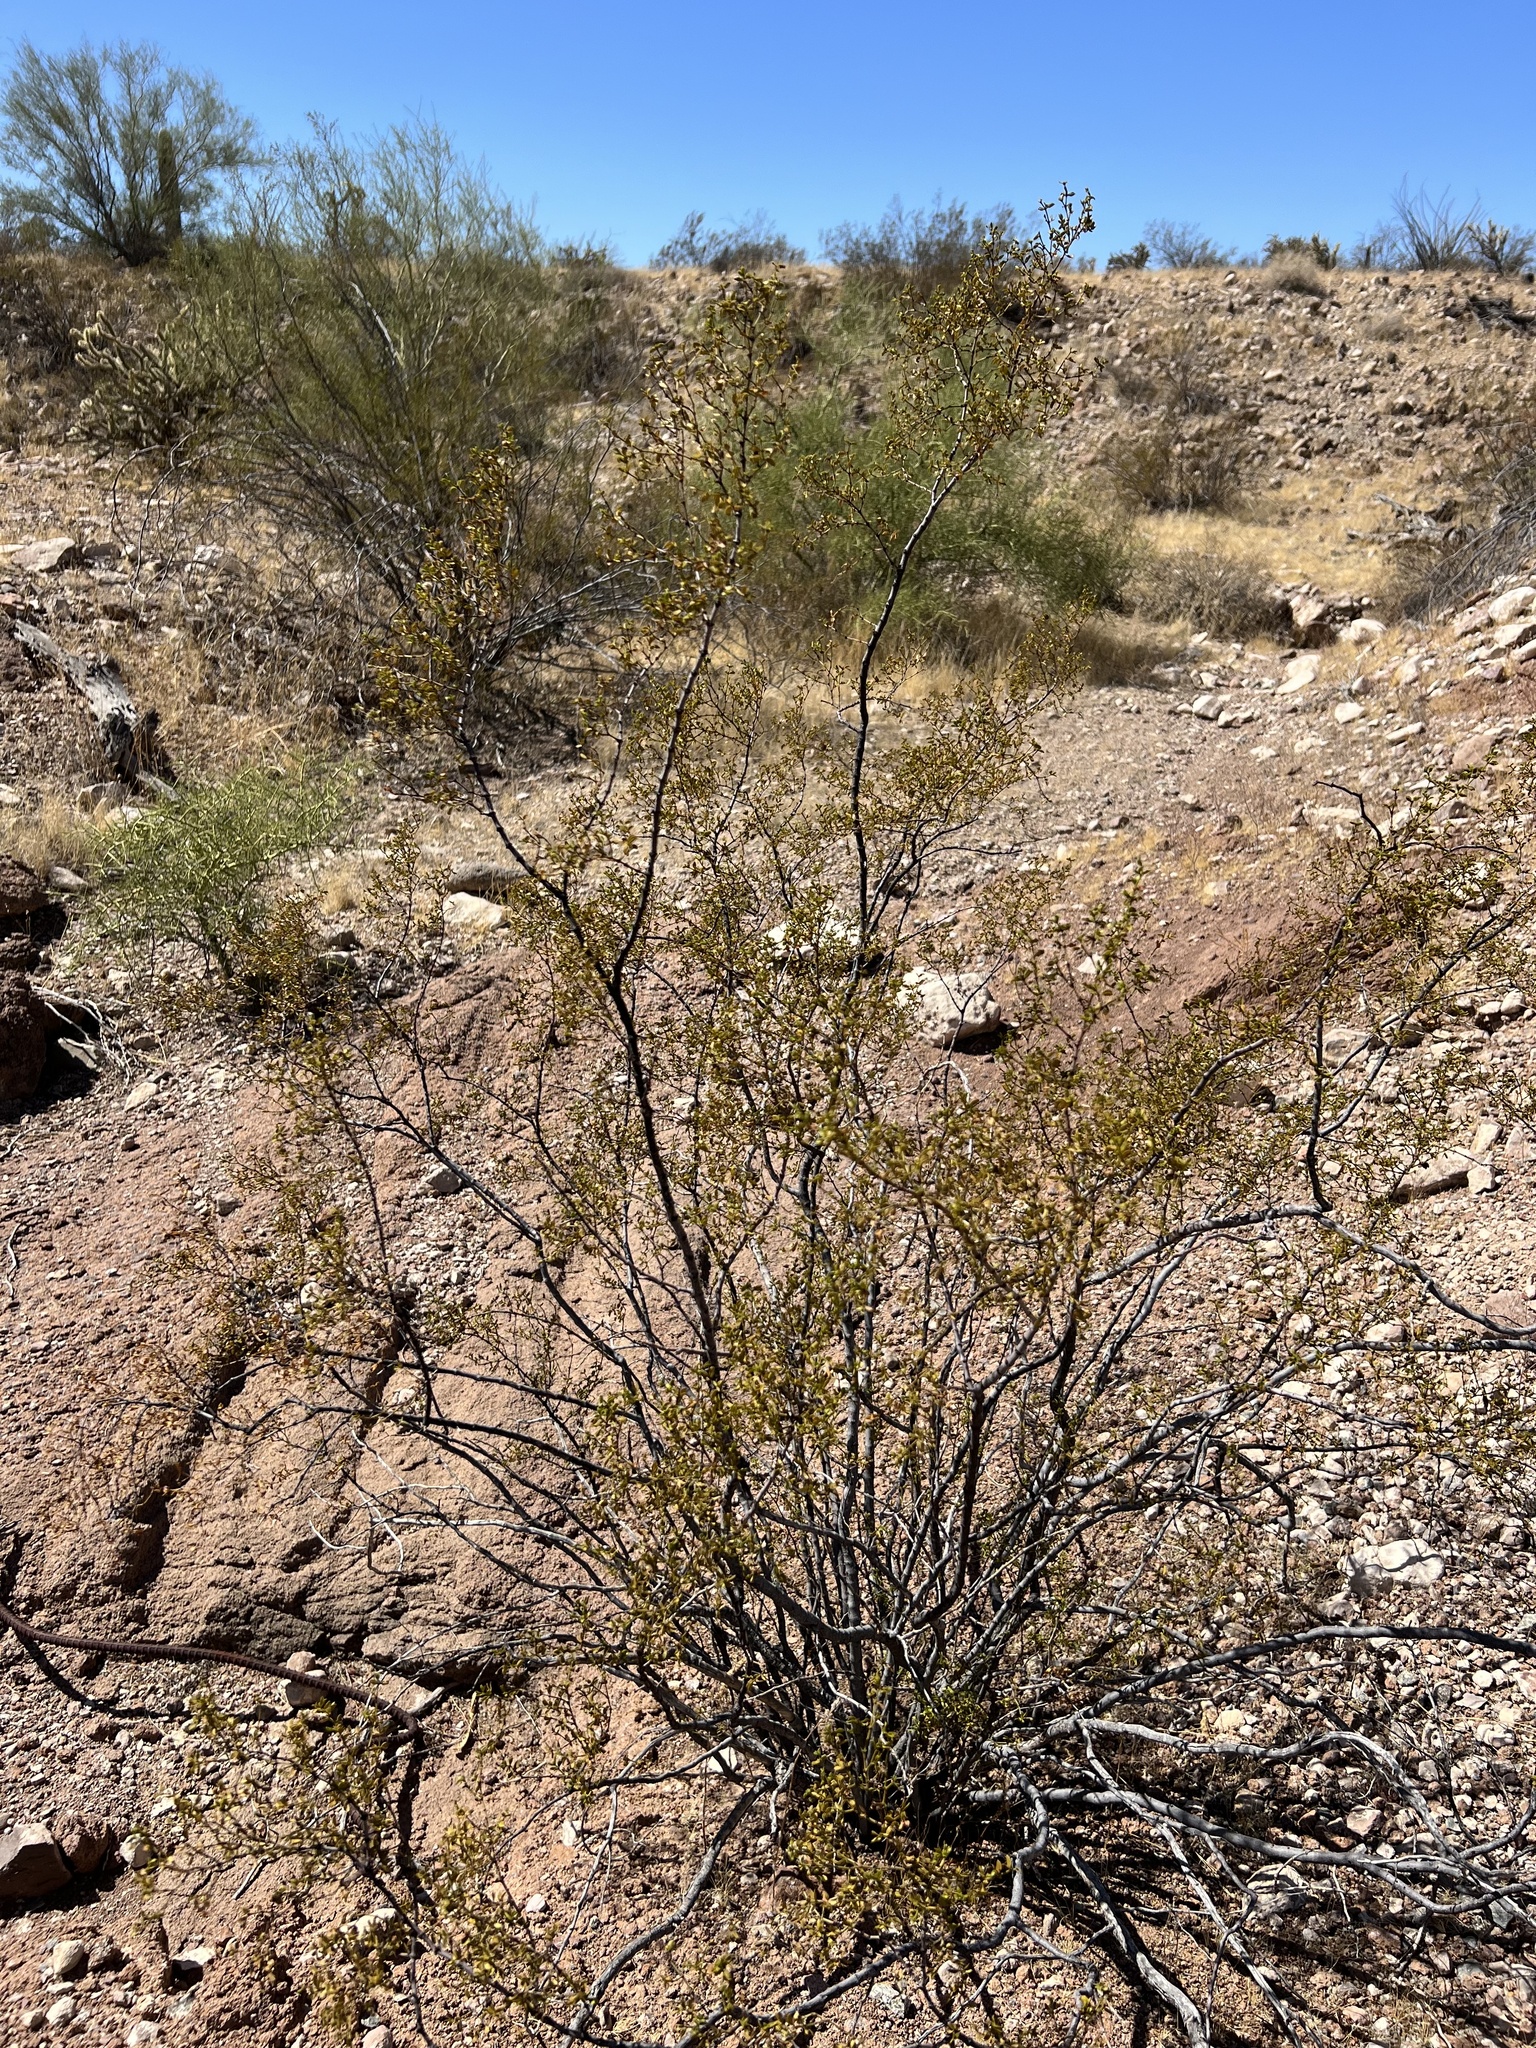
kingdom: Plantae
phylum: Tracheophyta
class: Magnoliopsida
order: Zygophyllales
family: Zygophyllaceae
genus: Larrea
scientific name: Larrea tridentata
